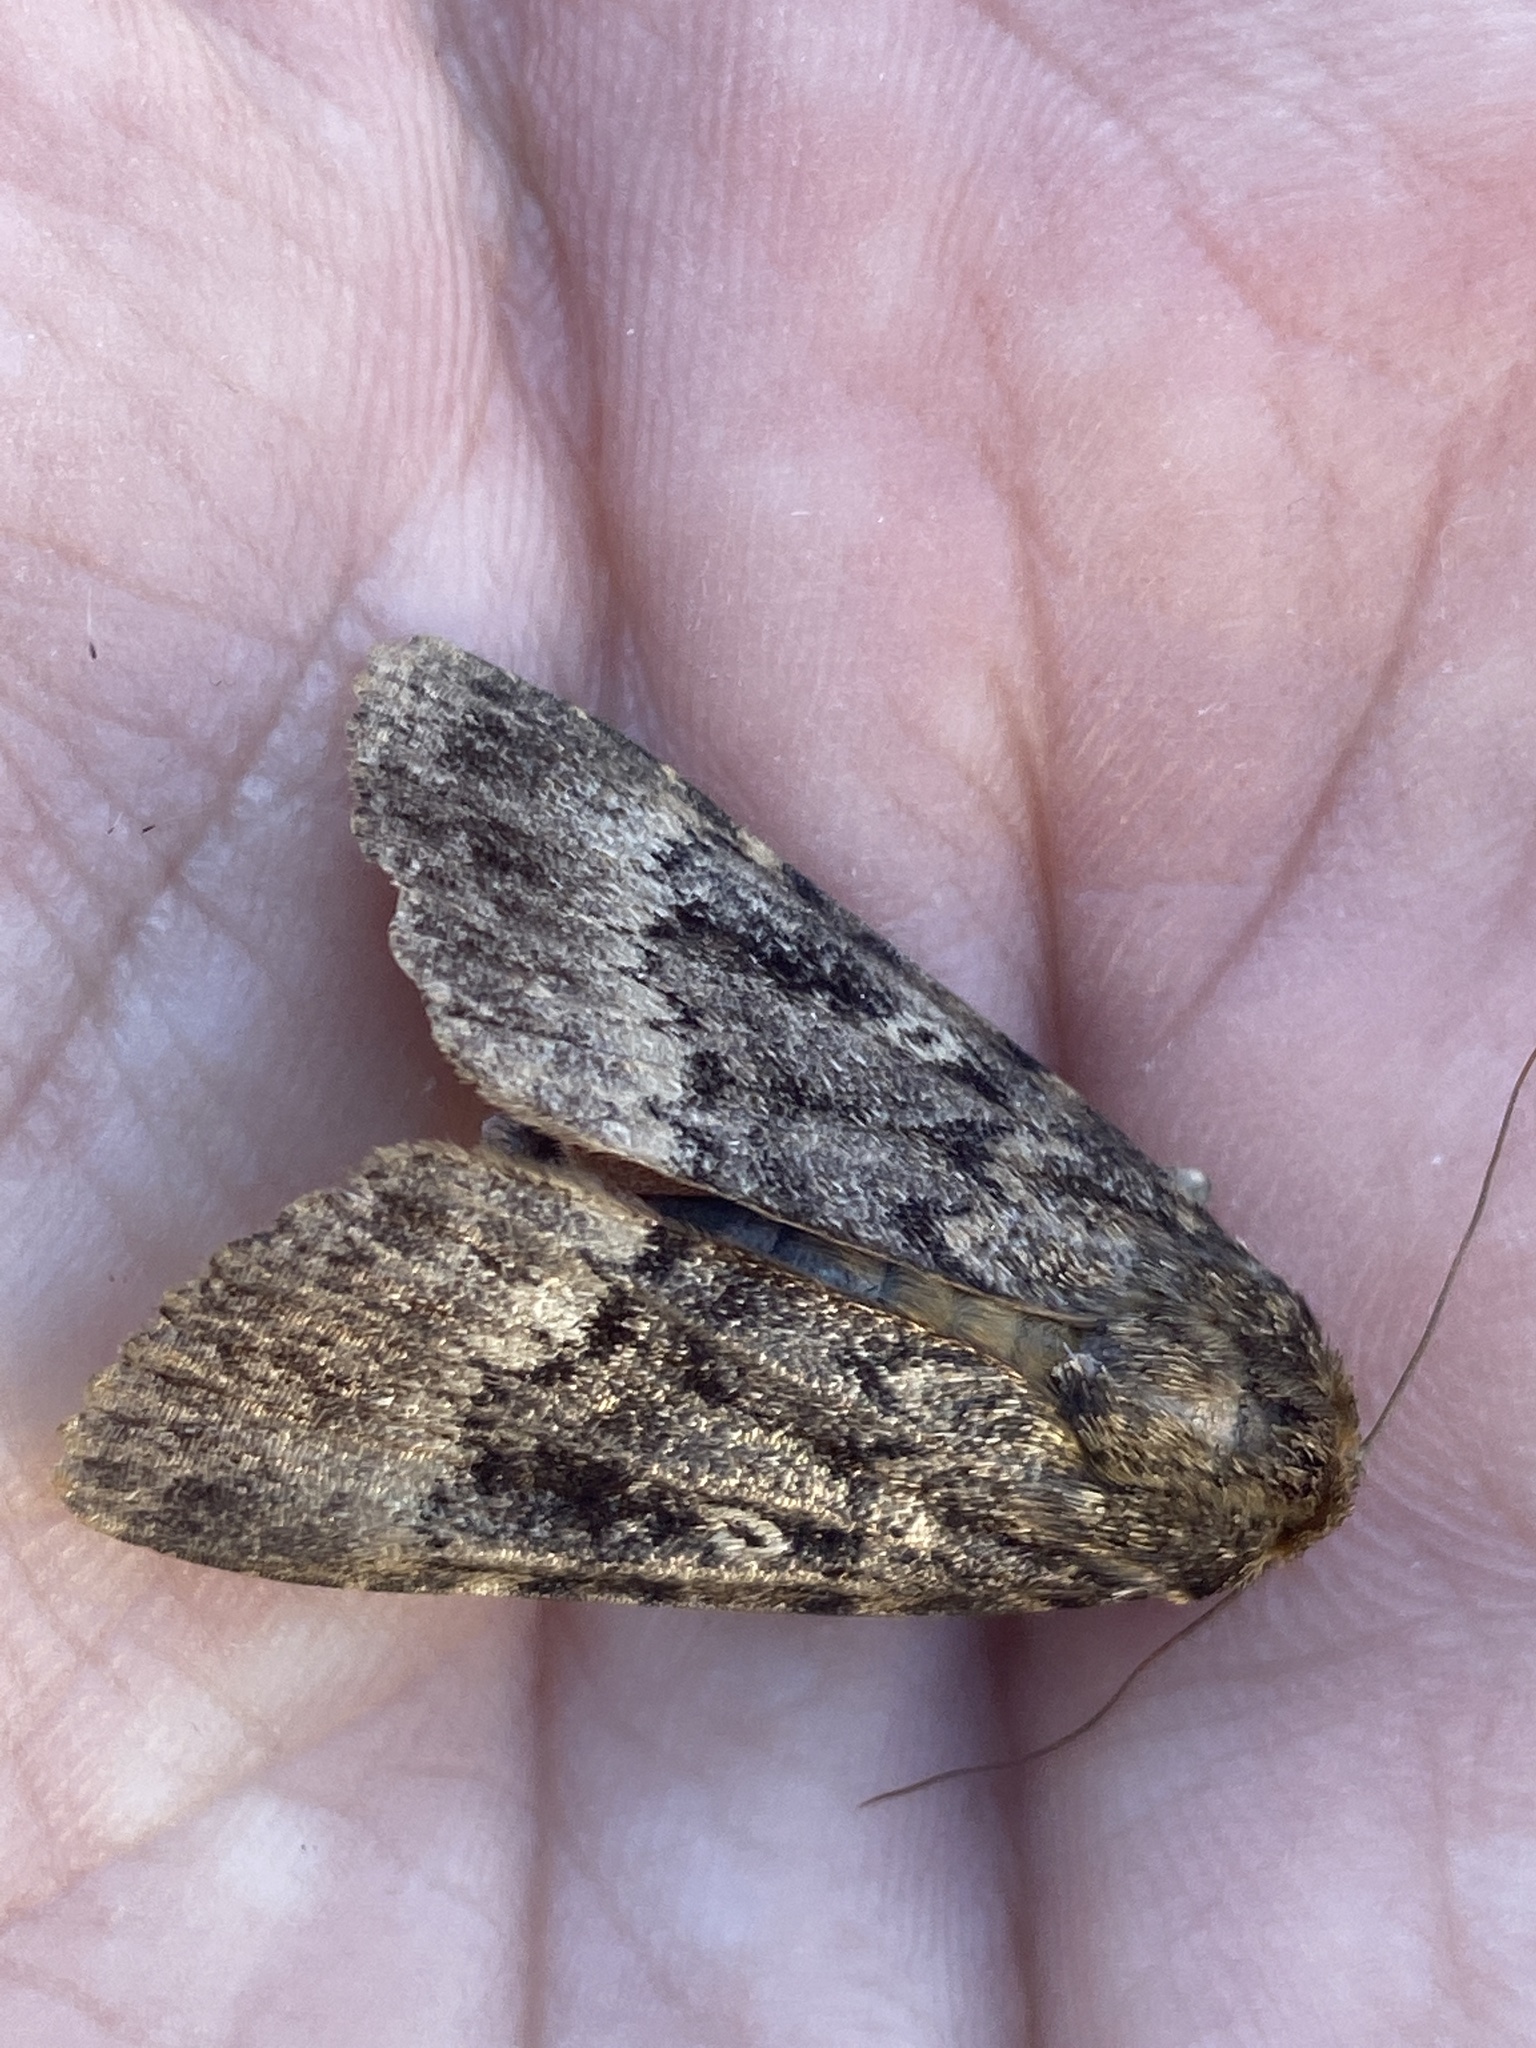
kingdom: Animalia
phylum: Arthropoda
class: Insecta
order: Lepidoptera
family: Noctuidae
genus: Amphipyra
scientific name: Amphipyra berbera
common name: Svensson's copper underwing
